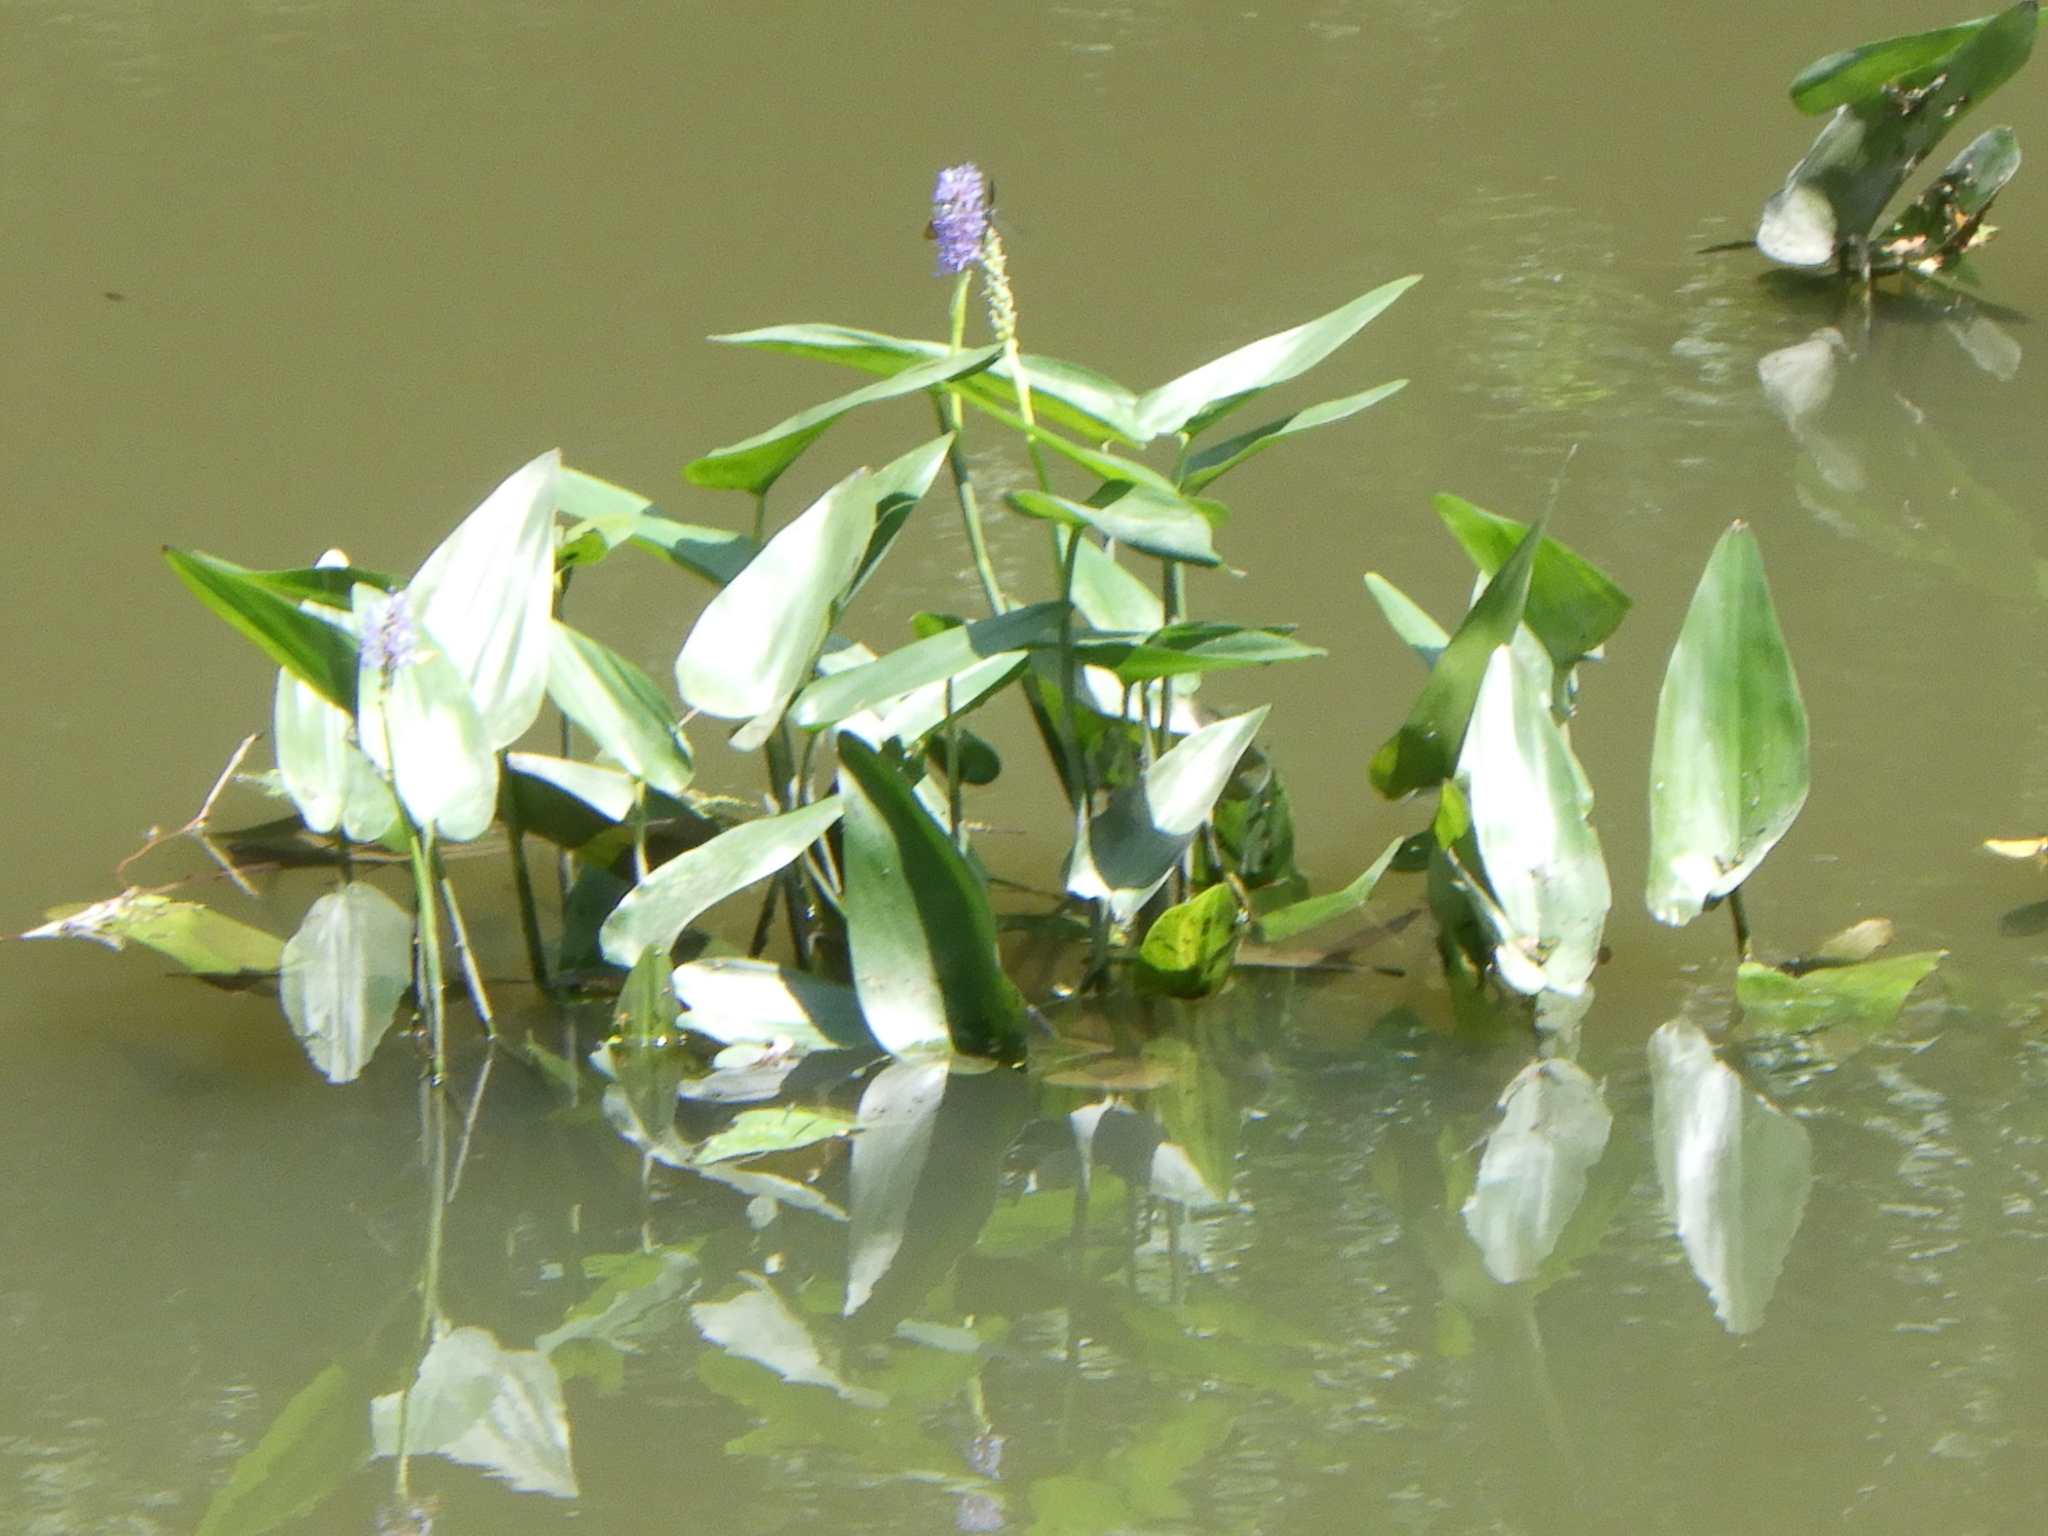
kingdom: Plantae
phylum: Tracheophyta
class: Liliopsida
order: Commelinales
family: Pontederiaceae
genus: Pontederia
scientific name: Pontederia cordata
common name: Pickerelweed
